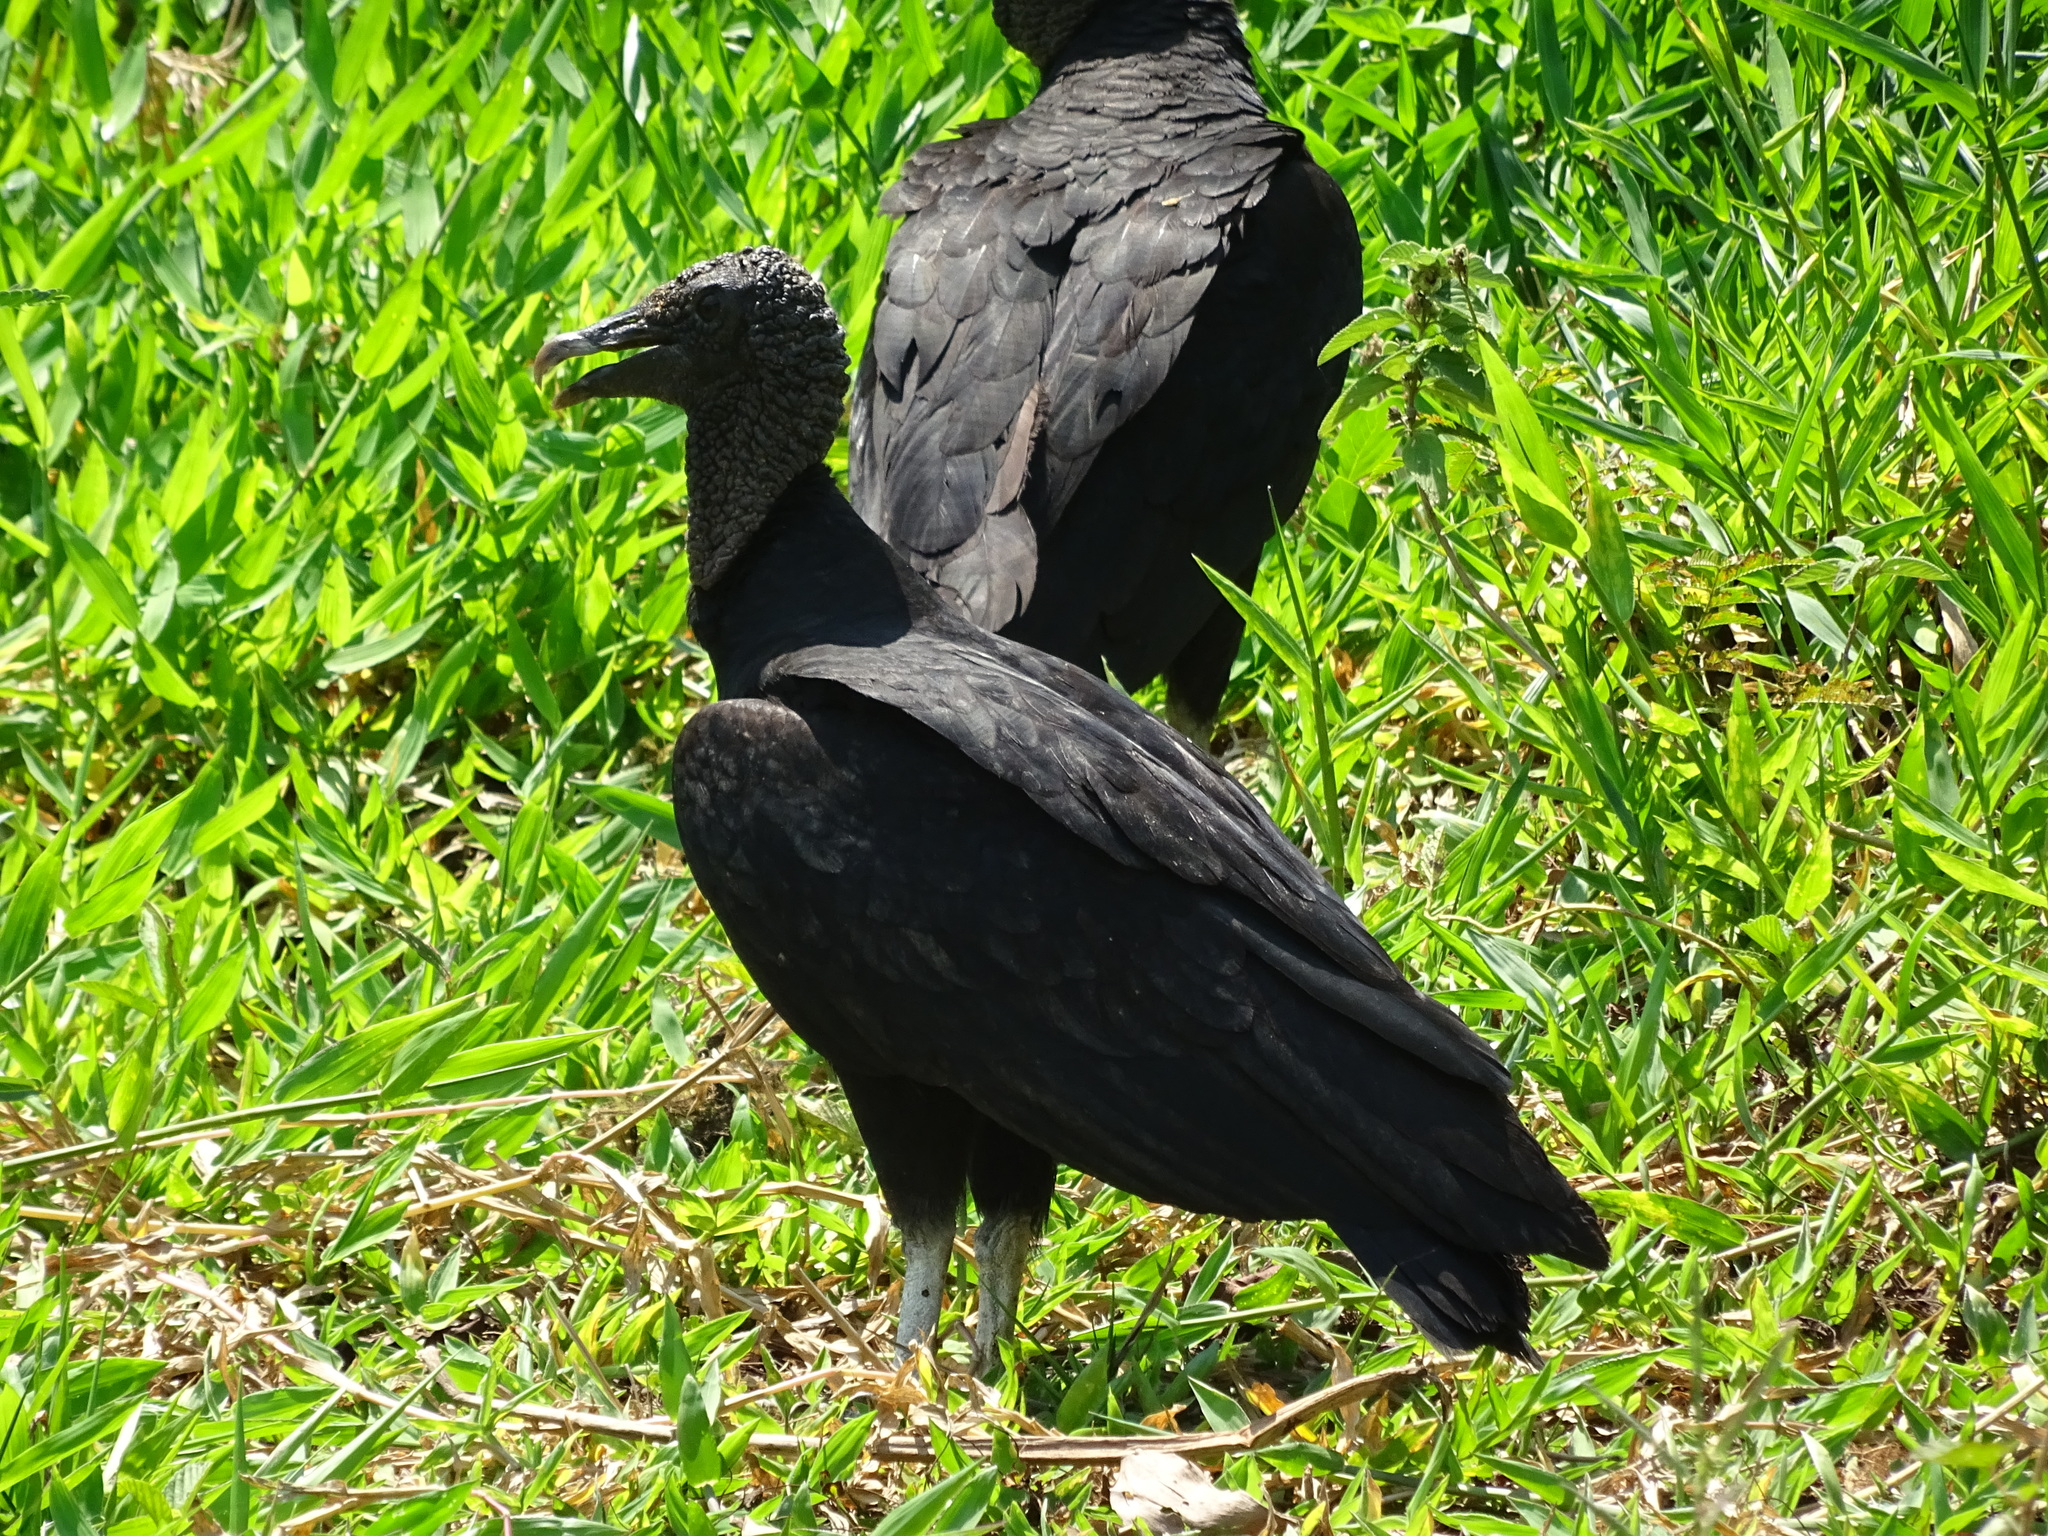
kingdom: Animalia
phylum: Chordata
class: Aves
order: Accipitriformes
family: Cathartidae
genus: Coragyps
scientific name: Coragyps atratus
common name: Black vulture
